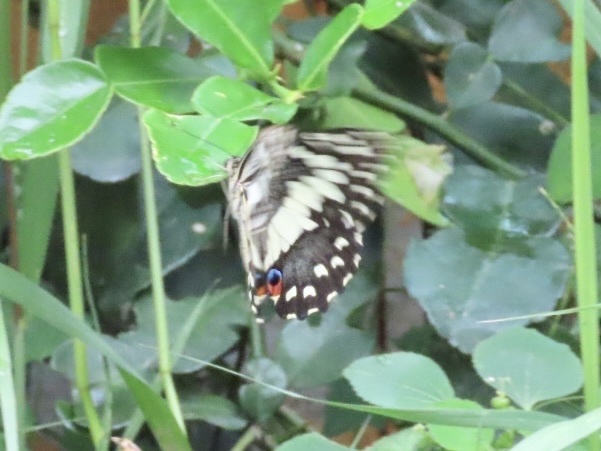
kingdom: Animalia
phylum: Arthropoda
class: Insecta
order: Lepidoptera
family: Papilionidae
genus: Papilio
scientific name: Papilio demoleus
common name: Lime butterfly
